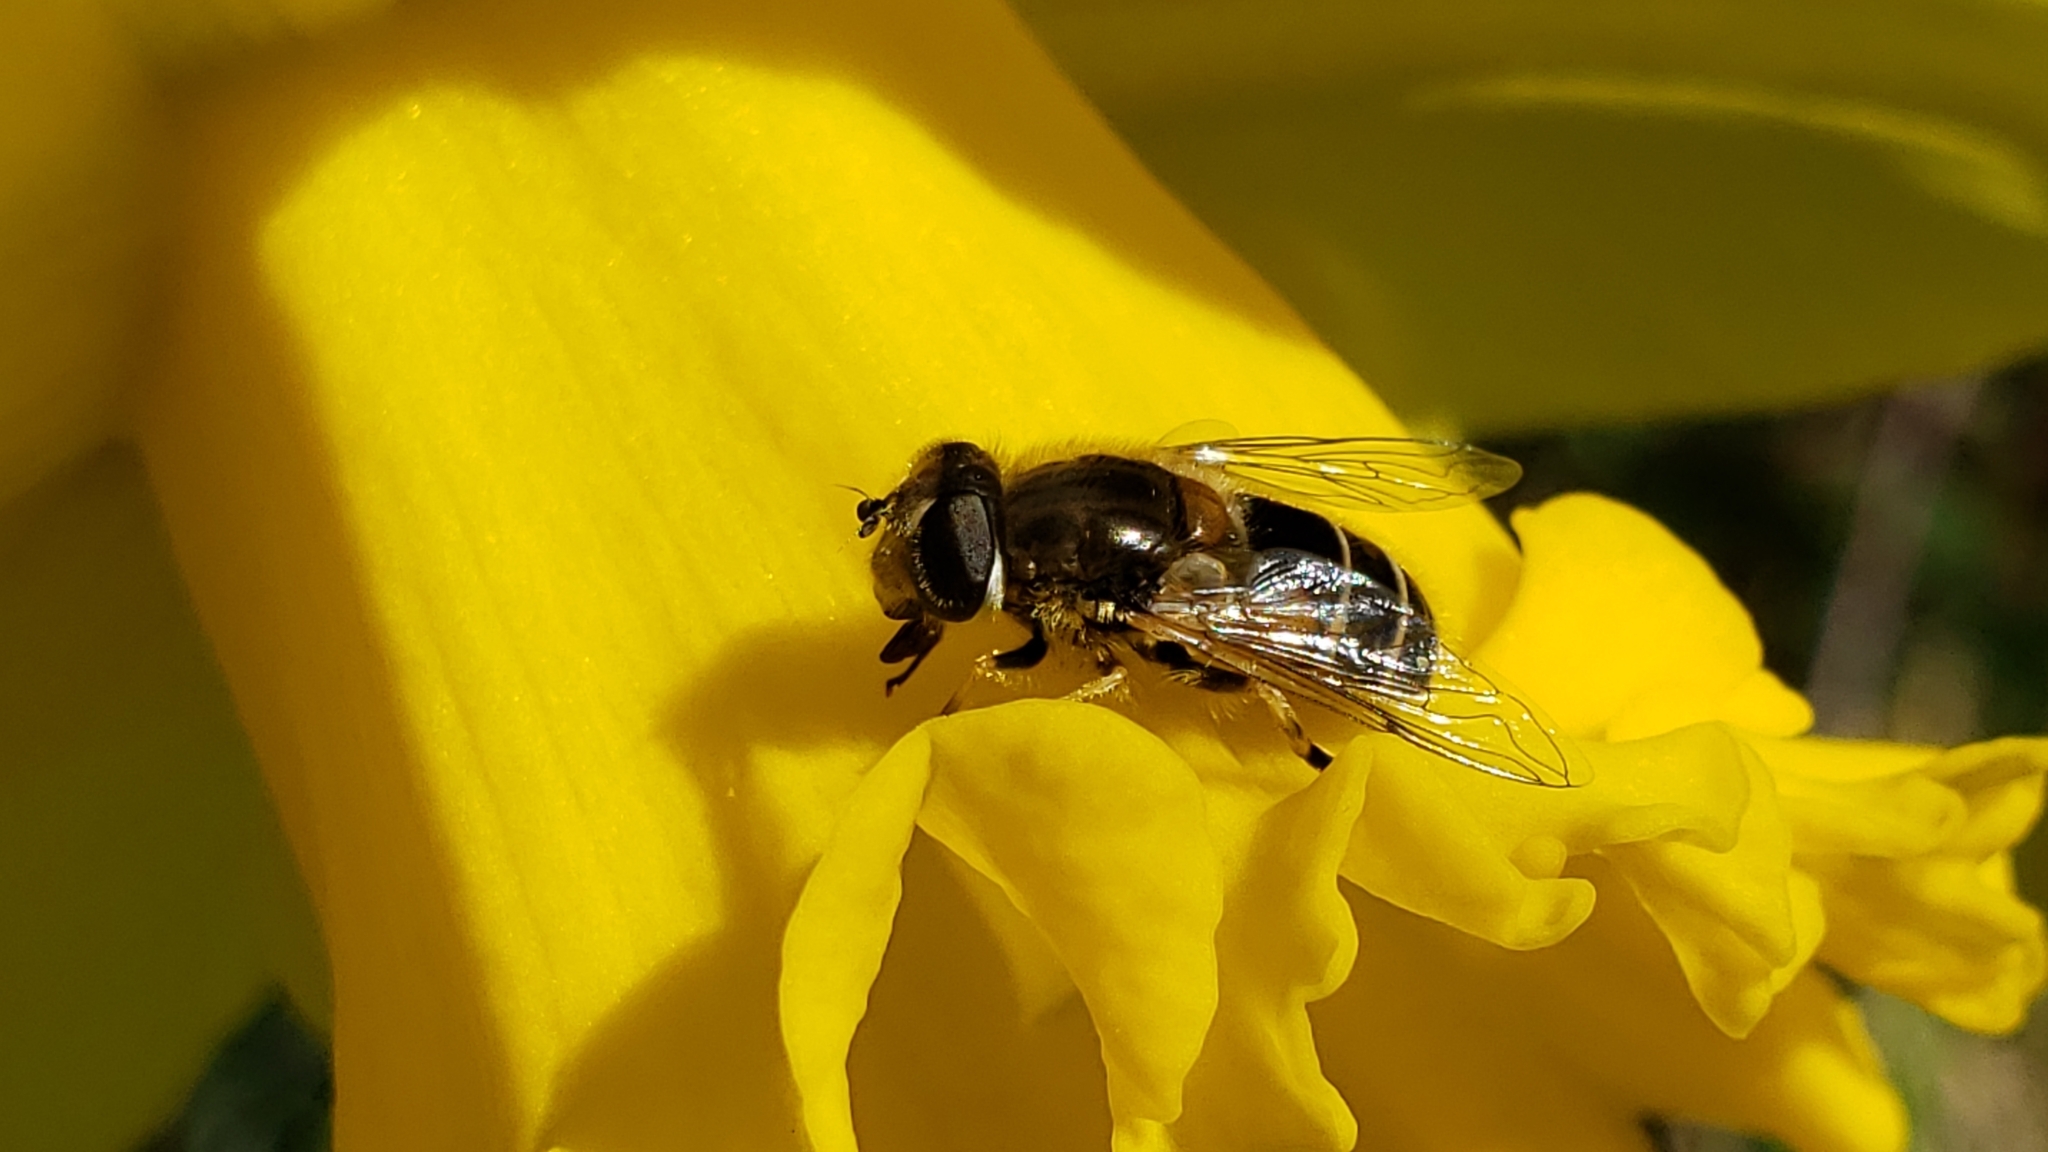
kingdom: Animalia
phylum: Arthropoda
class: Insecta
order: Diptera
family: Syrphidae
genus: Eristalis
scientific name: Eristalis arbustorum
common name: Hover fly
